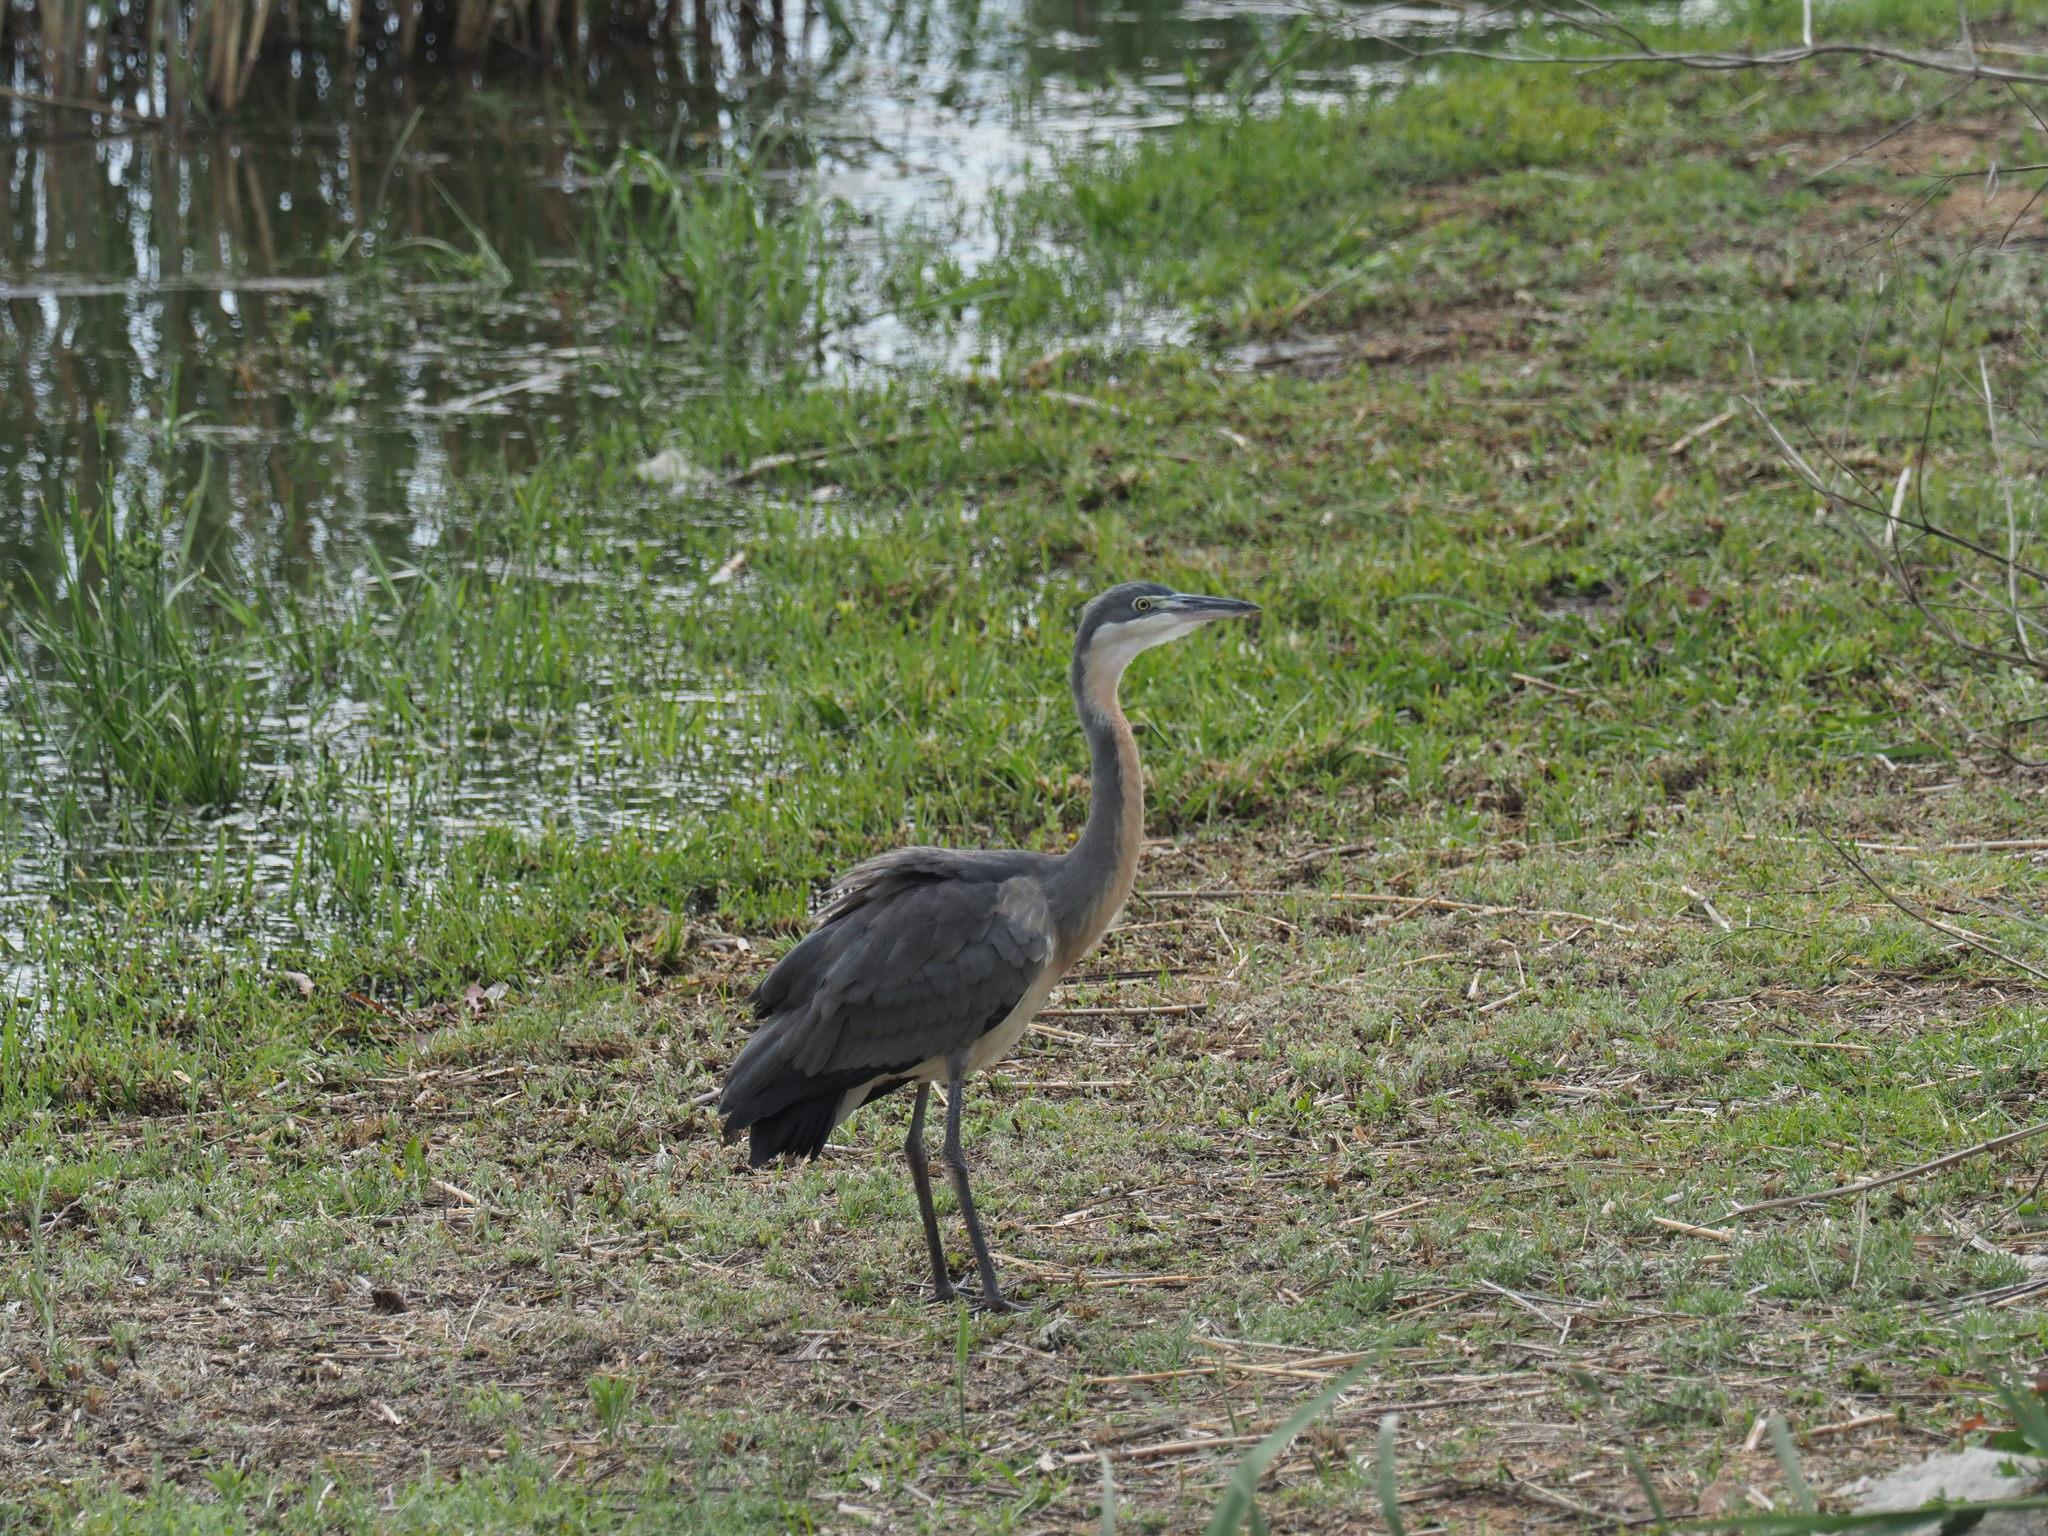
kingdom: Animalia
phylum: Chordata
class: Aves
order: Pelecaniformes
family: Ardeidae
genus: Ardea
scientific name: Ardea melanocephala
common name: Black-headed heron
